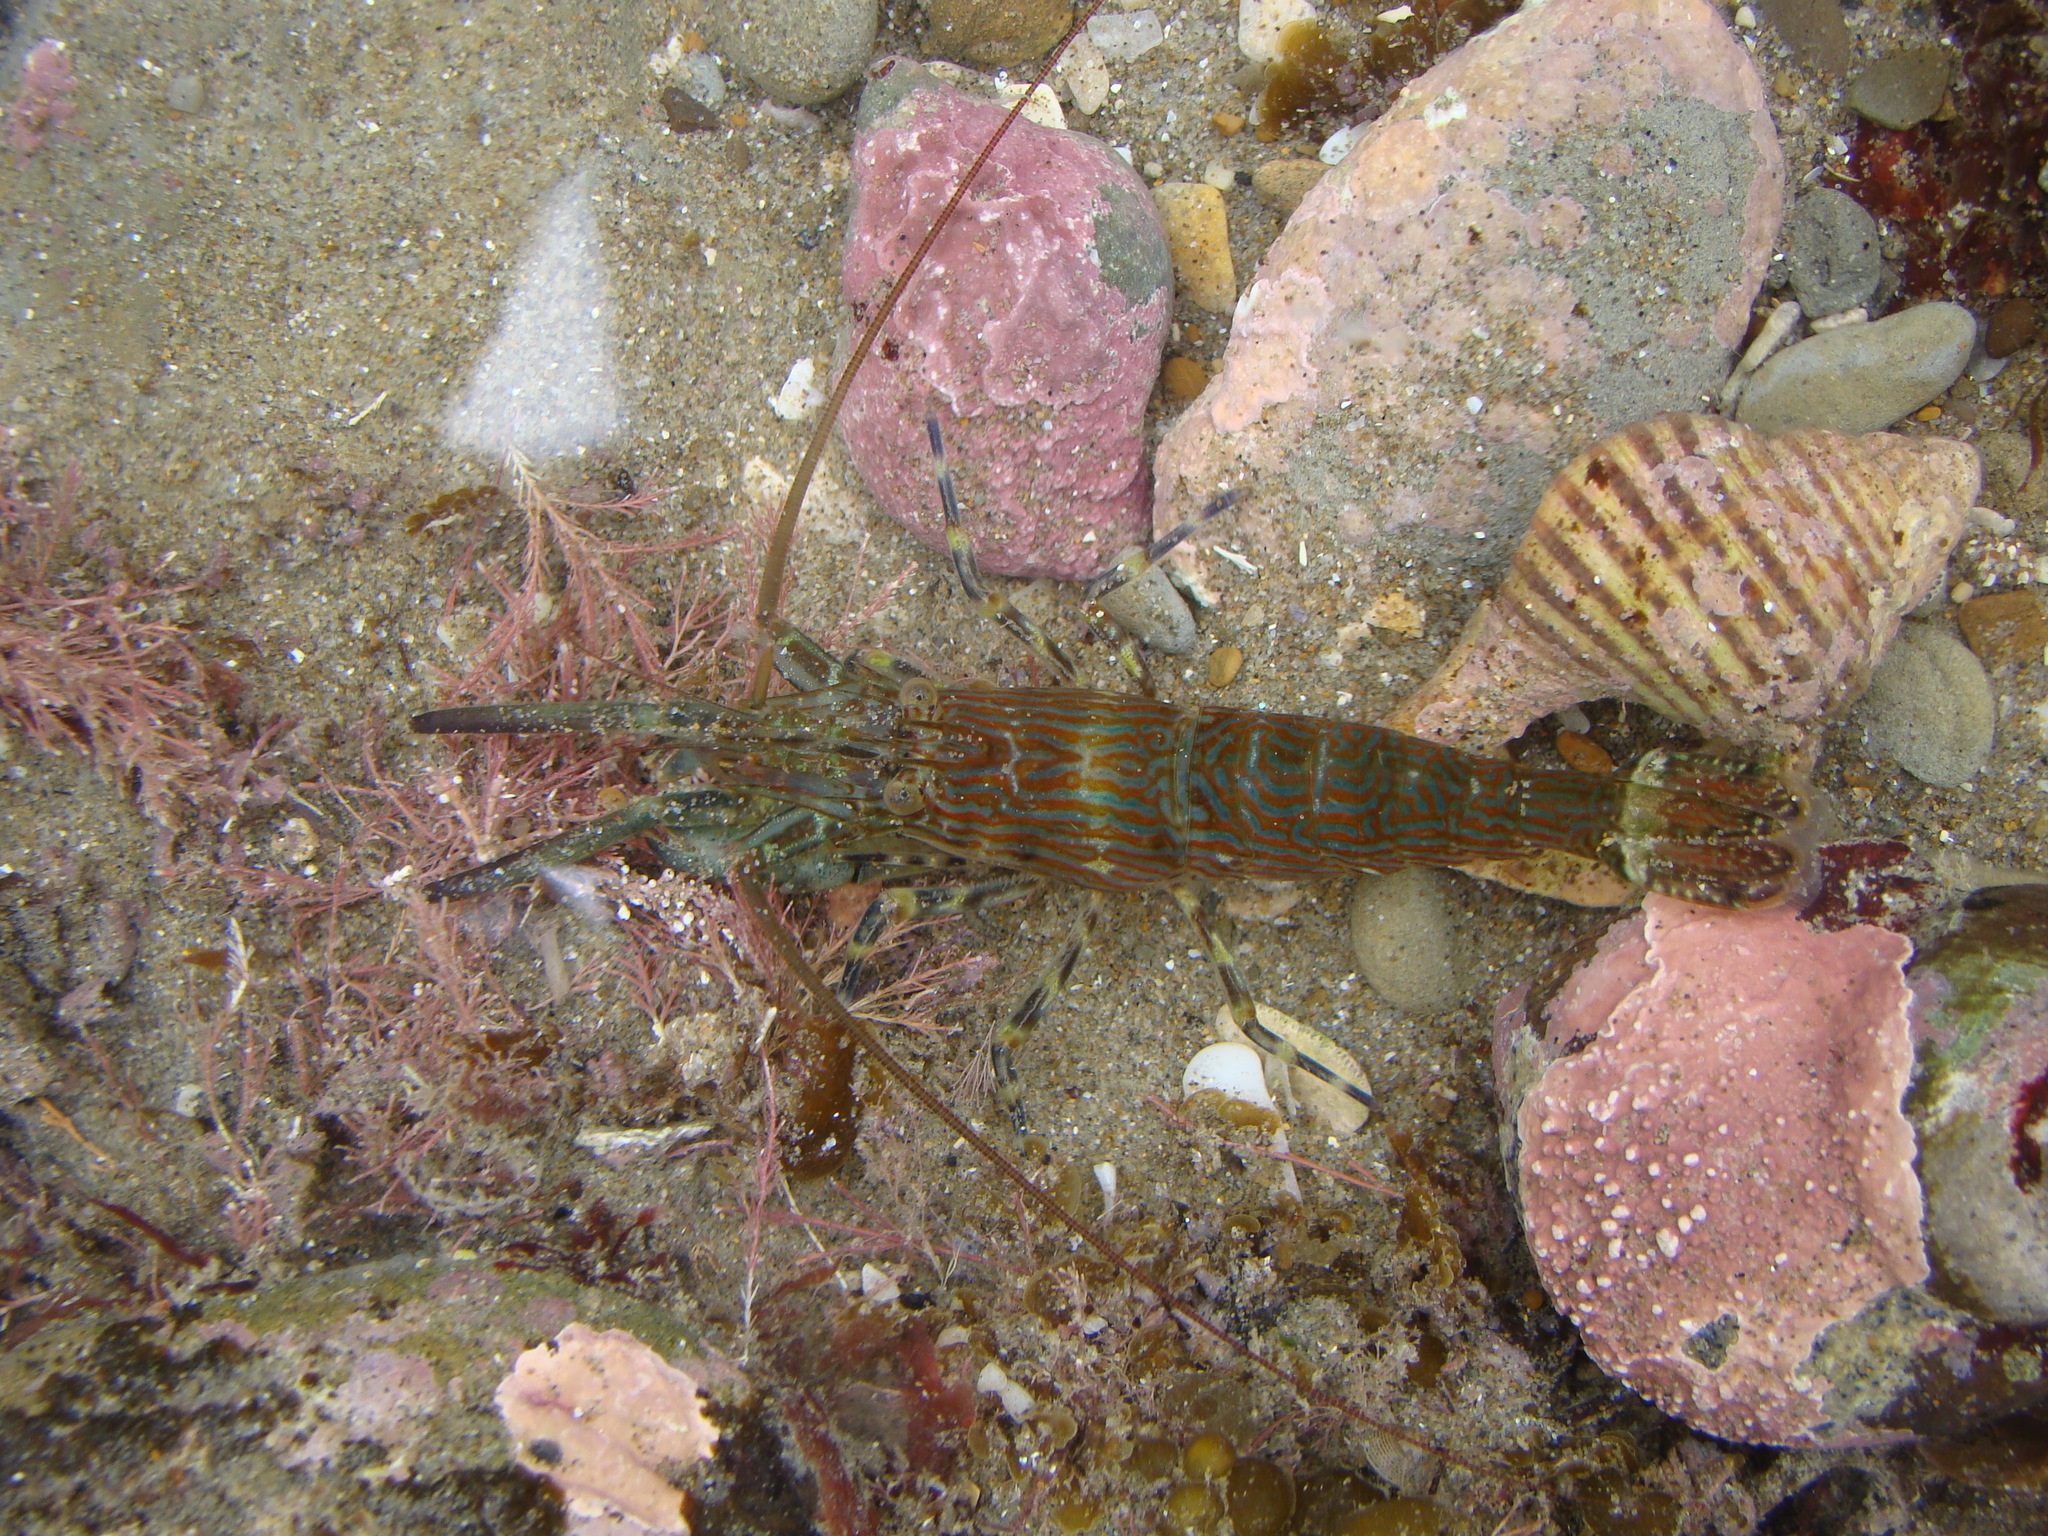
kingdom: Animalia
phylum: Arthropoda
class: Malacostraca
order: Decapoda
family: Hippolytidae
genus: Alope
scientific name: Alope spinifrons
